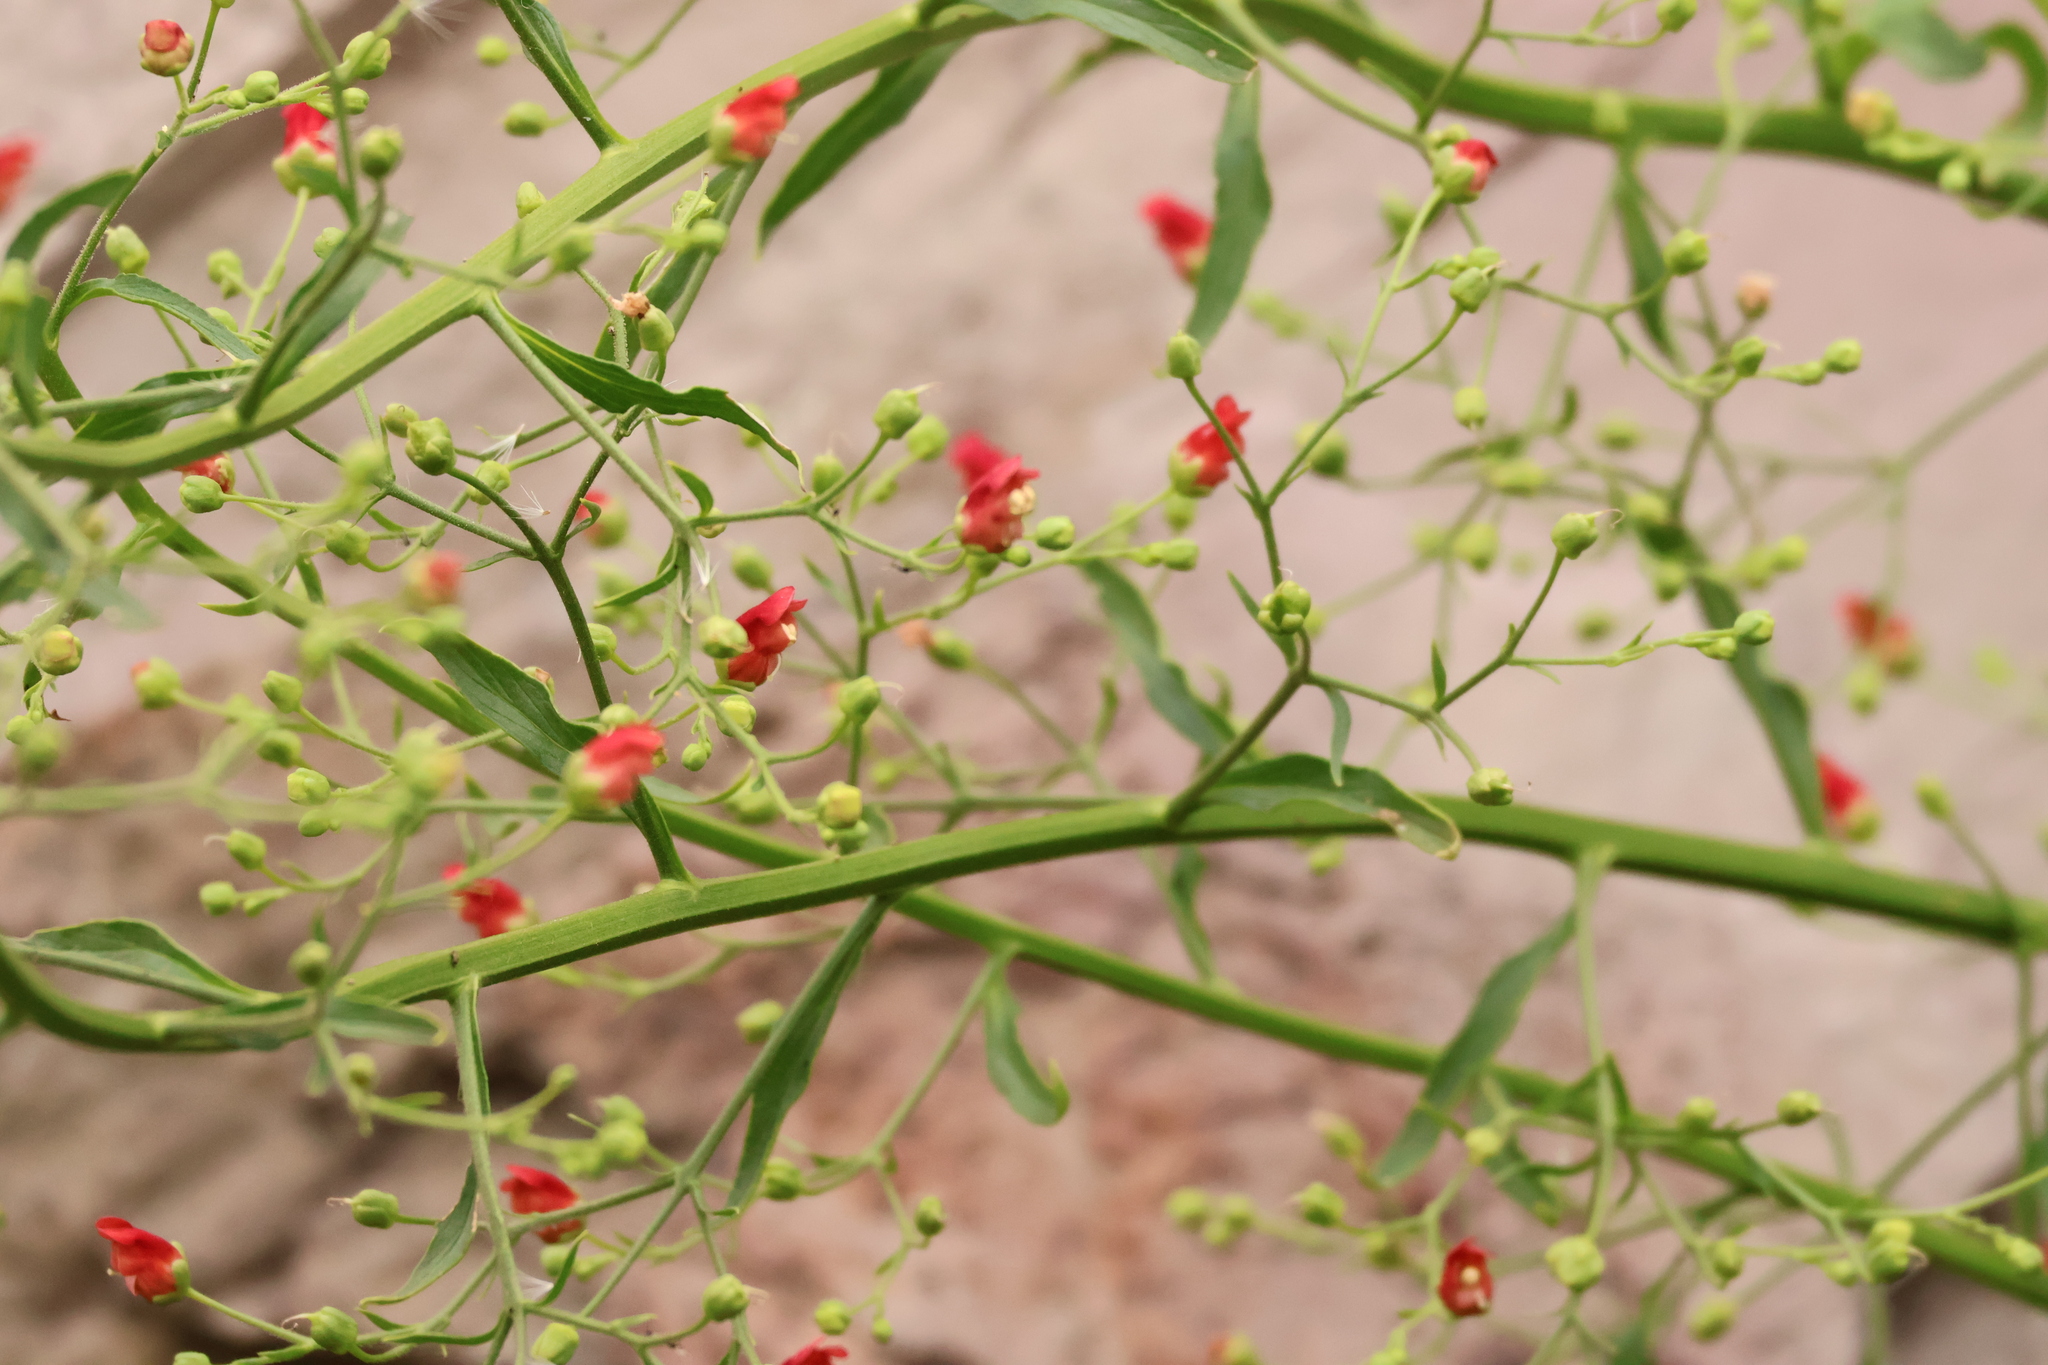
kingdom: Plantae
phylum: Tracheophyta
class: Magnoliopsida
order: Lamiales
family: Scrophulariaceae
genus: Scrophularia
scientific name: Scrophularia californica
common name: California figwort
